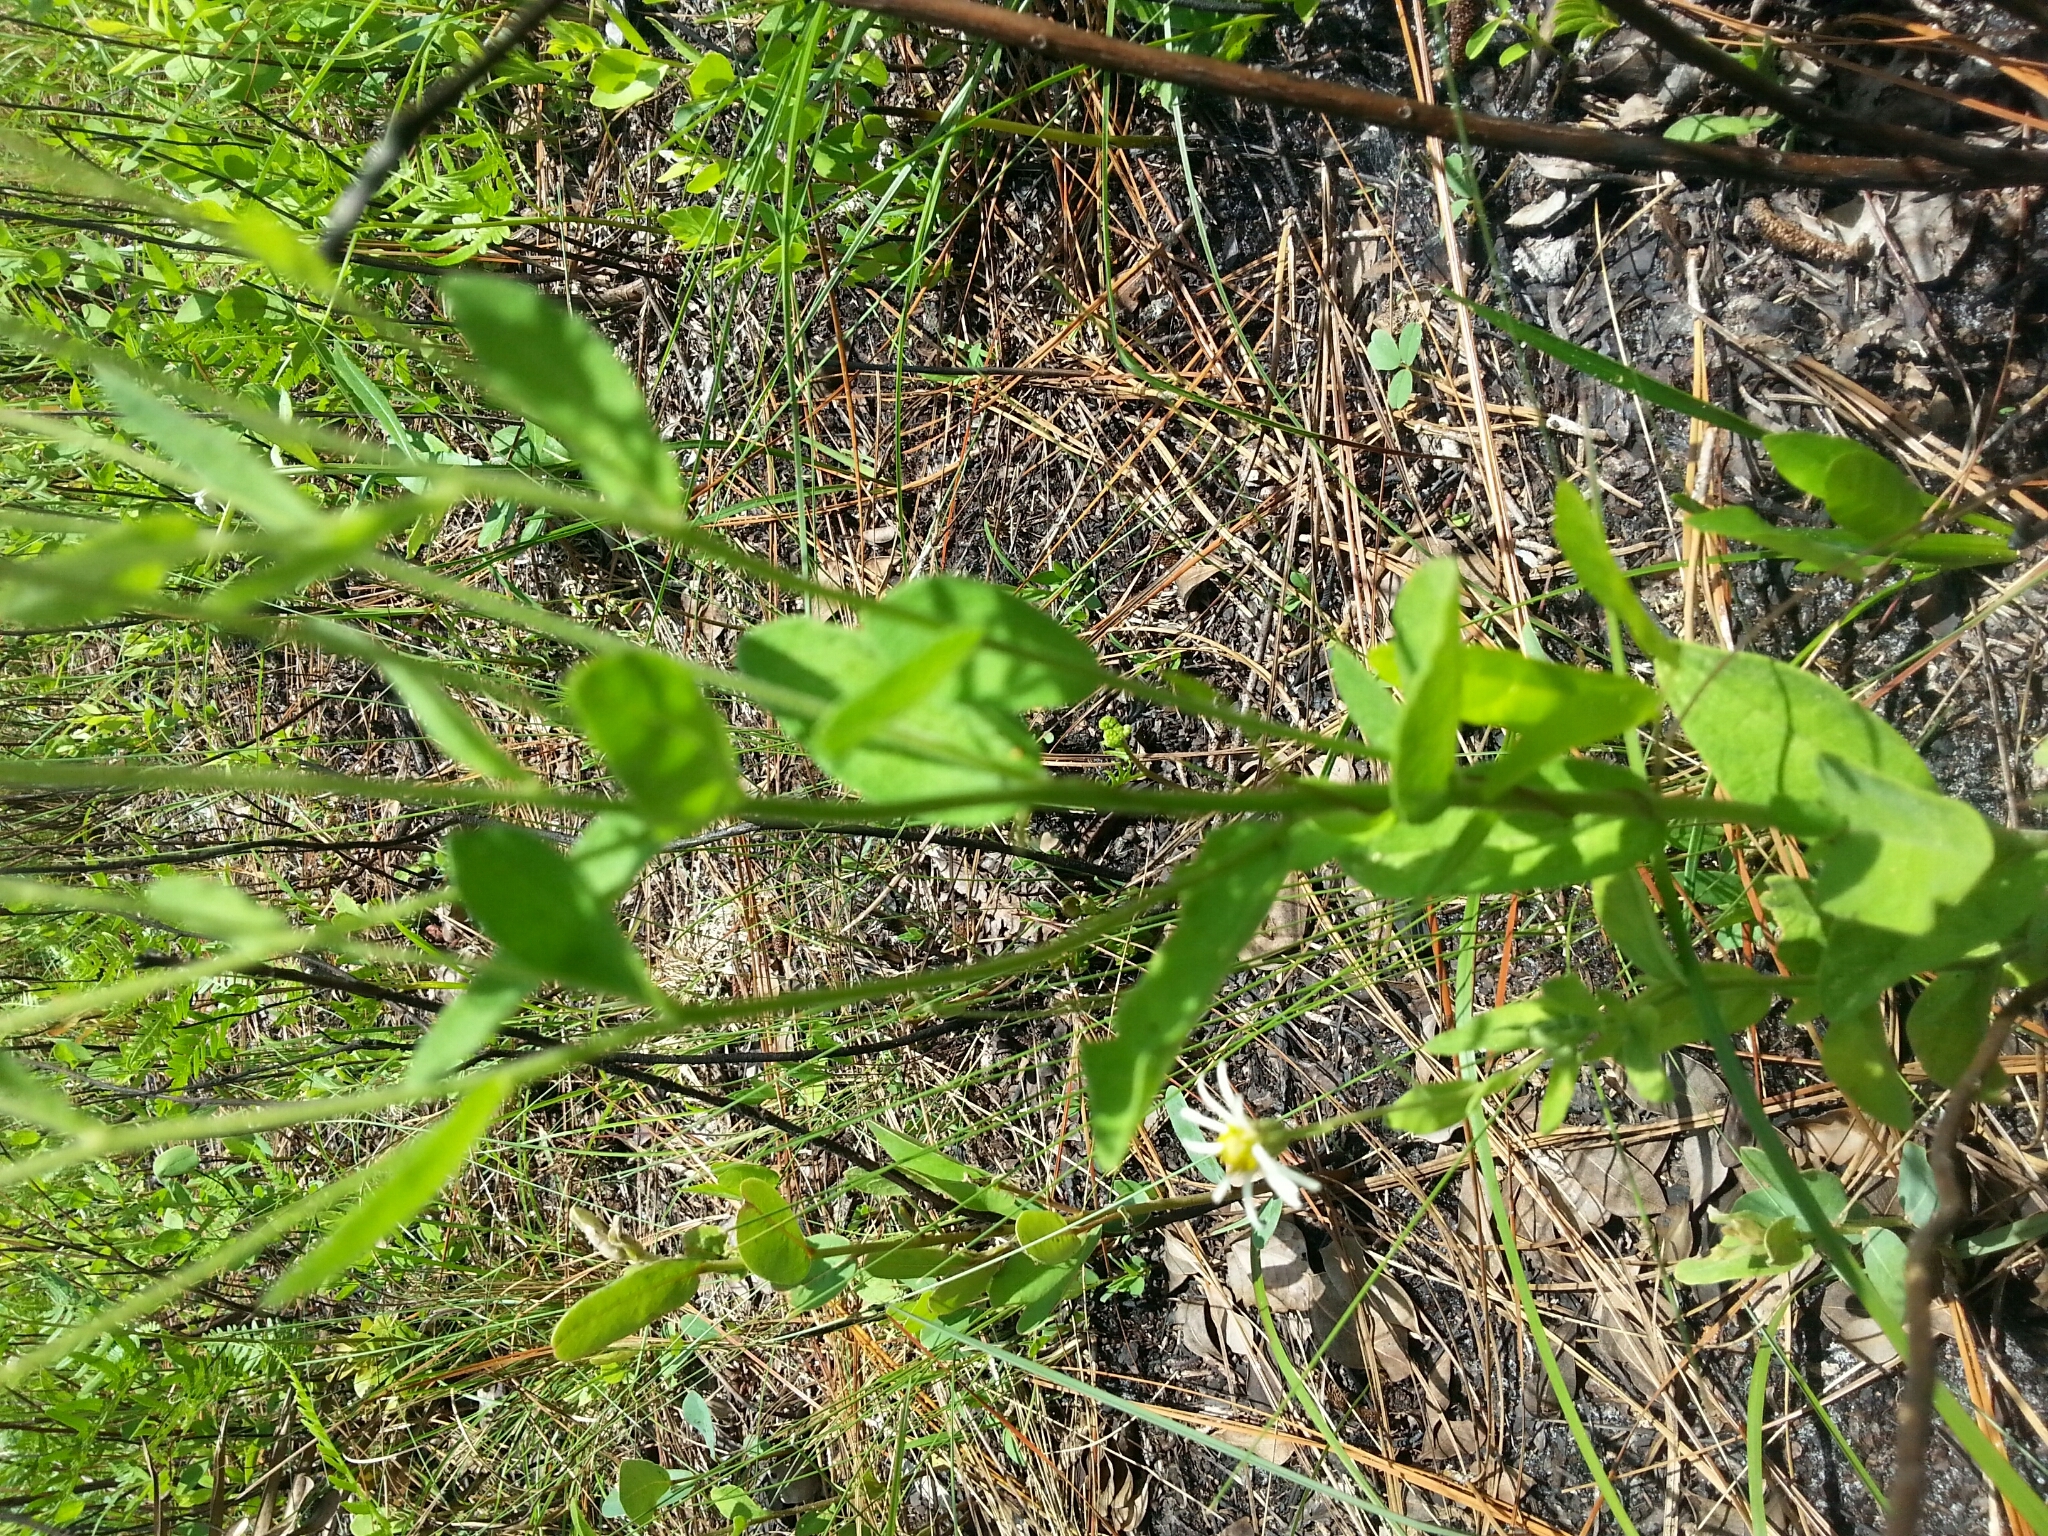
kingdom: Plantae
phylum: Tracheophyta
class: Magnoliopsida
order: Asterales
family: Asteraceae
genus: Oclemena
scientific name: Oclemena reticulata
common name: Pinebarren aster
